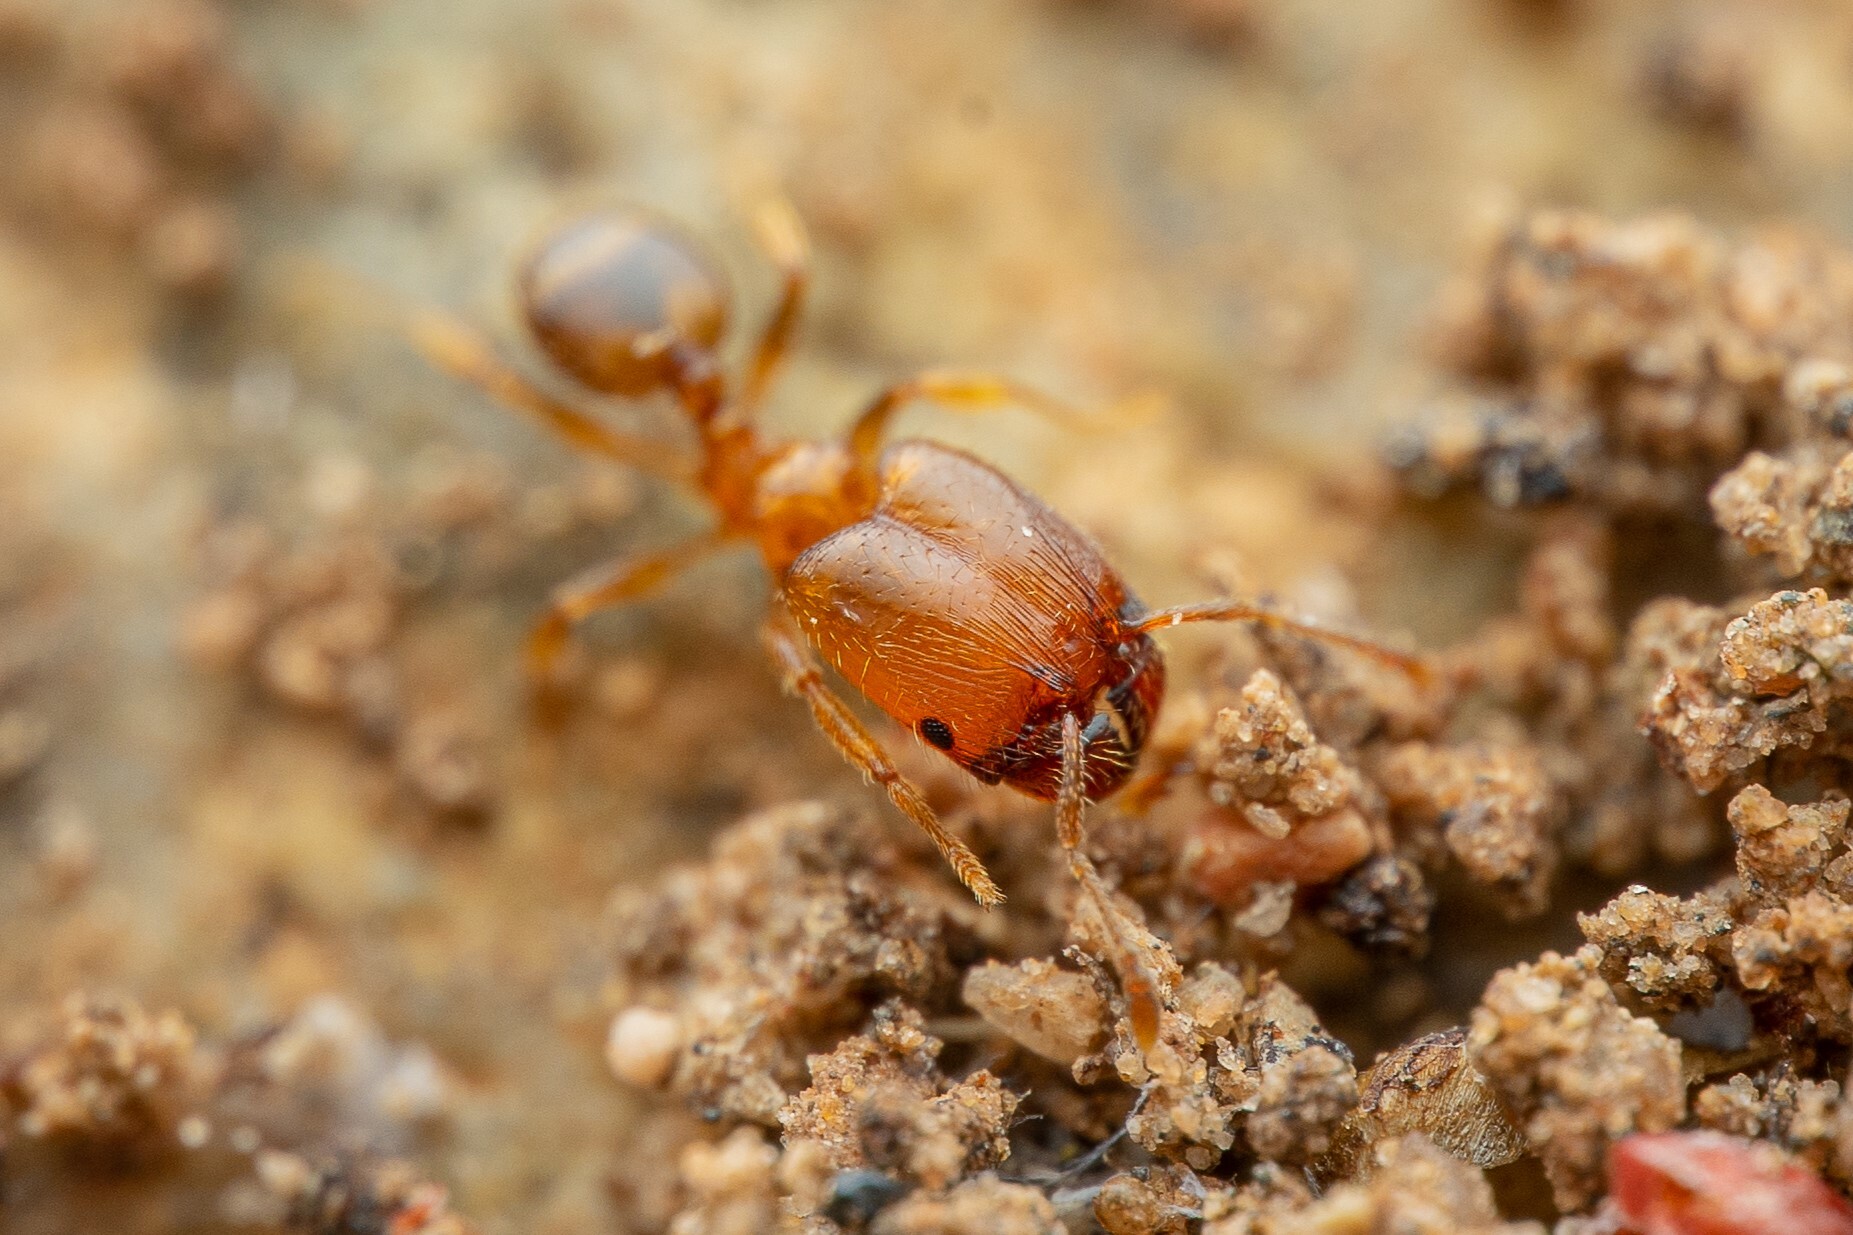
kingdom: Animalia
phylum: Arthropoda
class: Insecta
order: Hymenoptera
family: Formicidae
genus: Pheidole
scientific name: Pheidole
